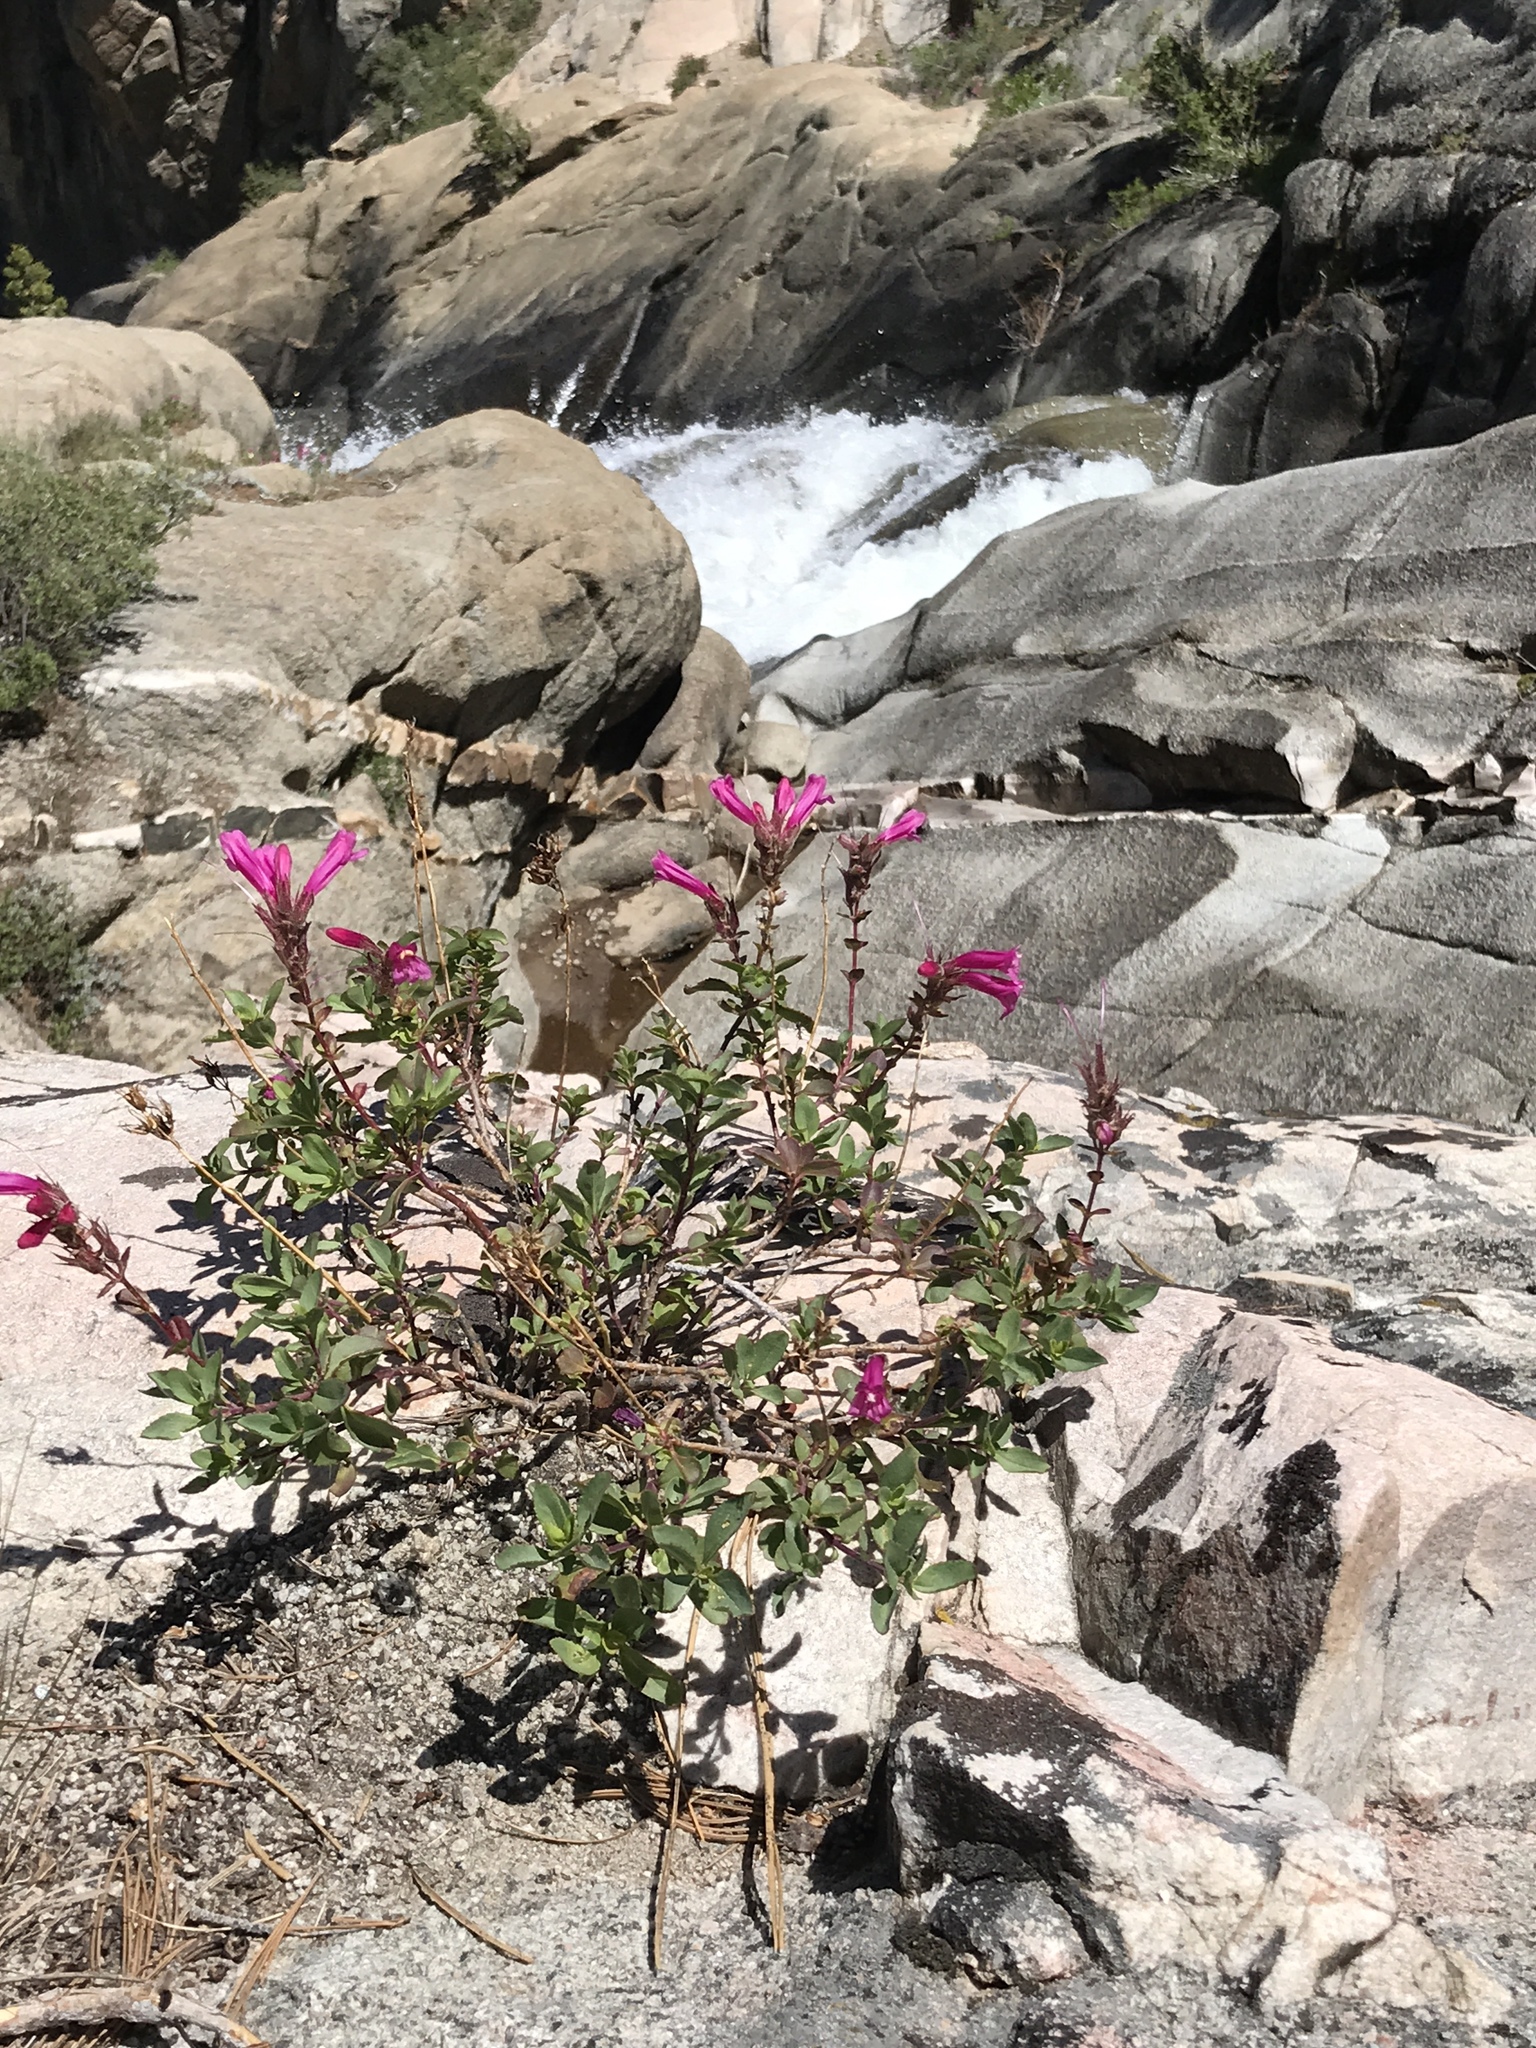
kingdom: Plantae
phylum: Tracheophyta
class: Magnoliopsida
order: Lamiales
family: Plantaginaceae
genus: Penstemon
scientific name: Penstemon newberryi
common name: Mountain-pride
